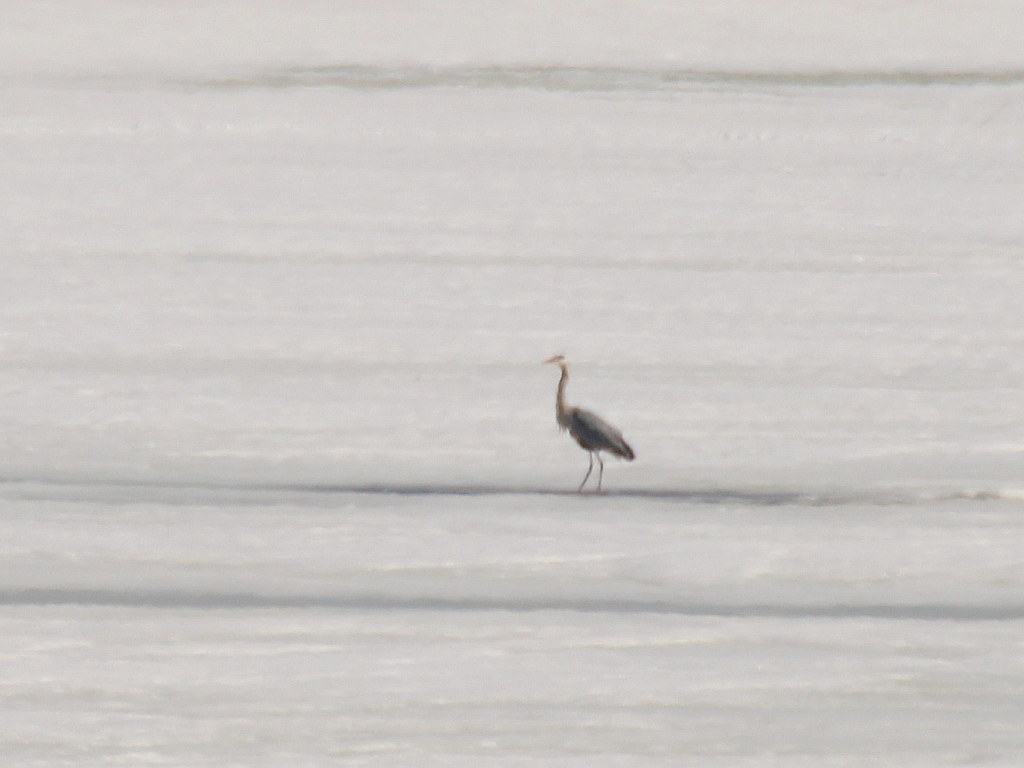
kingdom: Animalia
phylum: Chordata
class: Aves
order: Pelecaniformes
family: Ardeidae
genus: Ardea
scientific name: Ardea cinerea
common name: Grey heron
